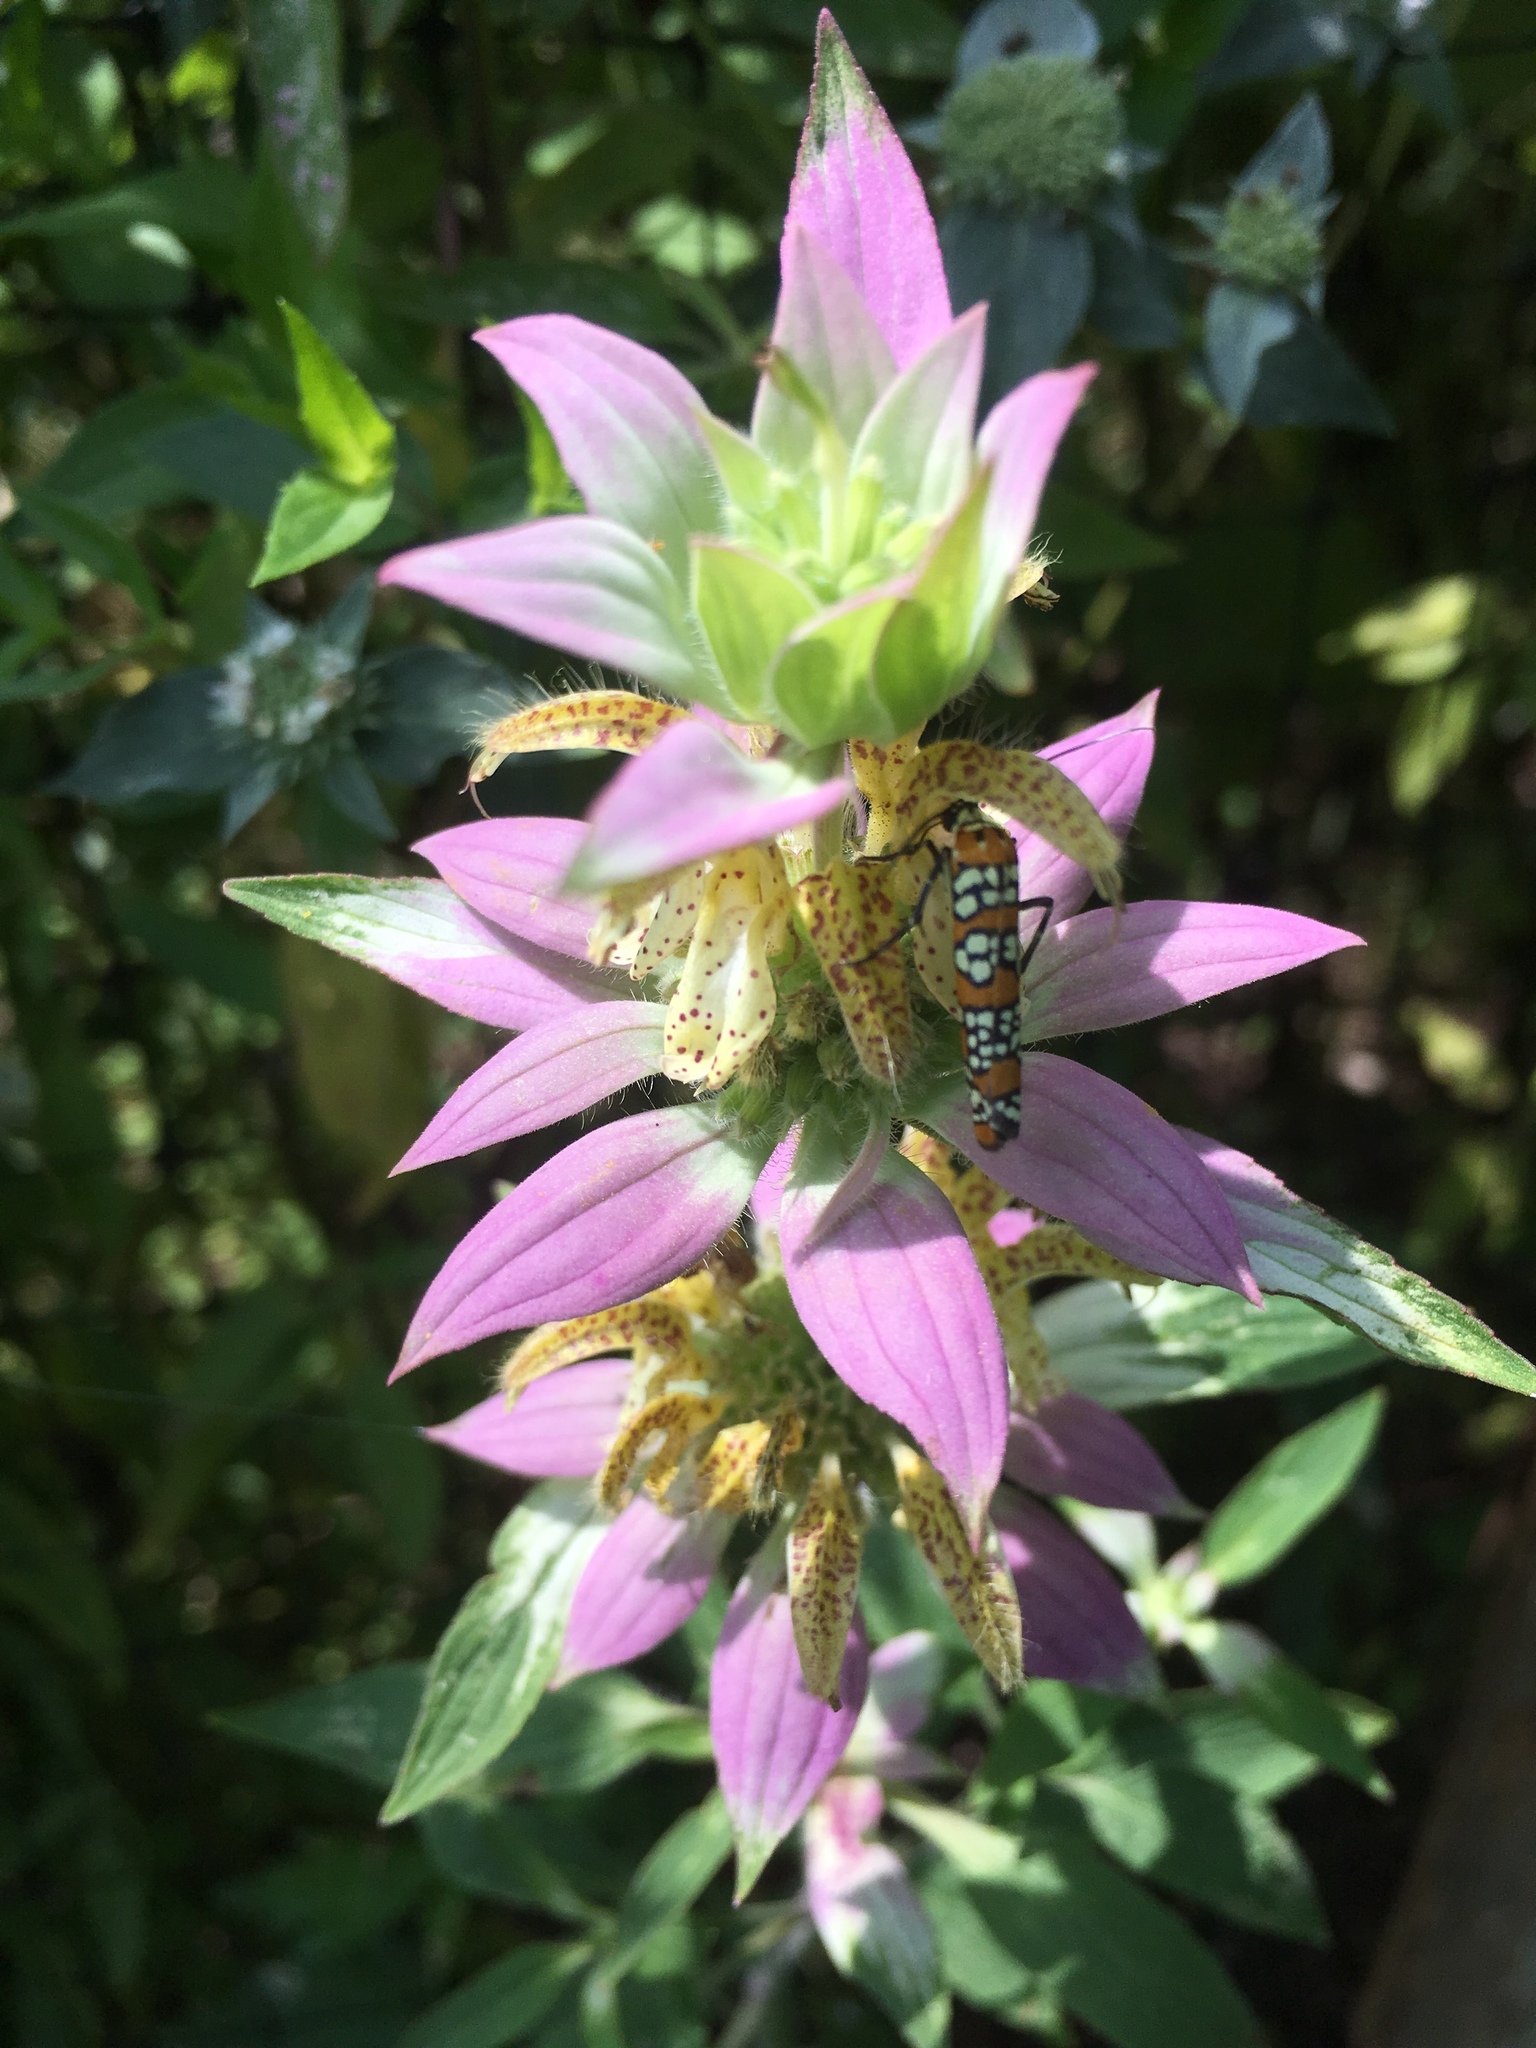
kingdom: Animalia
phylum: Arthropoda
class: Insecta
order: Lepidoptera
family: Attevidae
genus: Atteva
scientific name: Atteva punctella
